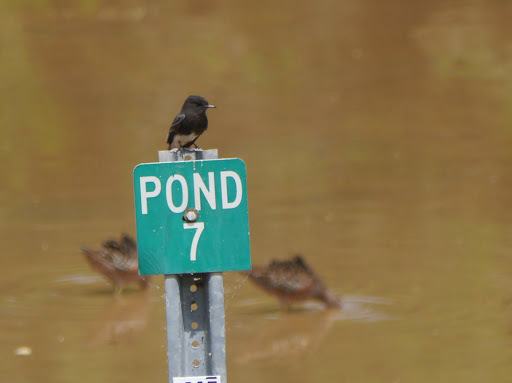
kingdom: Animalia
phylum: Chordata
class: Aves
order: Passeriformes
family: Tyrannidae
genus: Sayornis
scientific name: Sayornis nigricans
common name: Black phoebe
